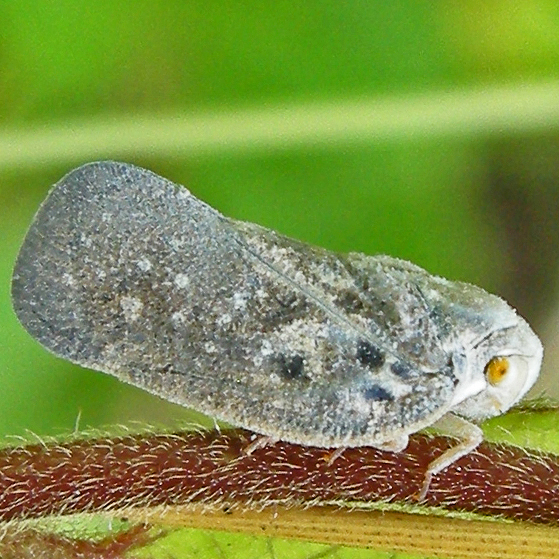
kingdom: Animalia
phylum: Arthropoda
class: Insecta
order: Hemiptera
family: Flatidae
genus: Metcalfa
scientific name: Metcalfa pruinosa
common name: Citrus flatid planthopper
